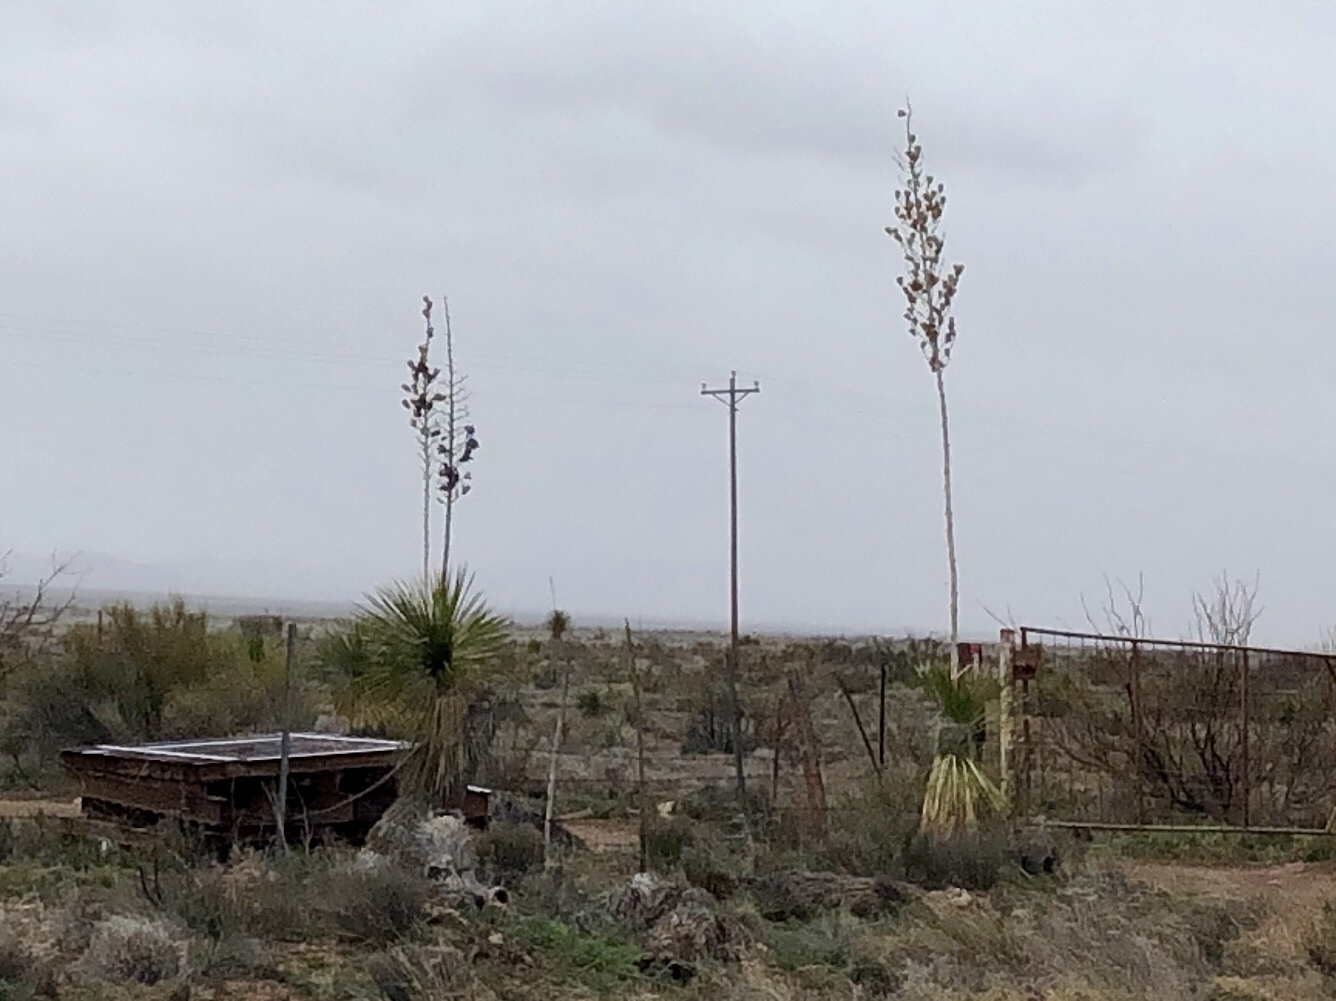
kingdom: Plantae
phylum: Tracheophyta
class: Liliopsida
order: Asparagales
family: Asparagaceae
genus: Yucca
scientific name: Yucca elata
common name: Palmella
